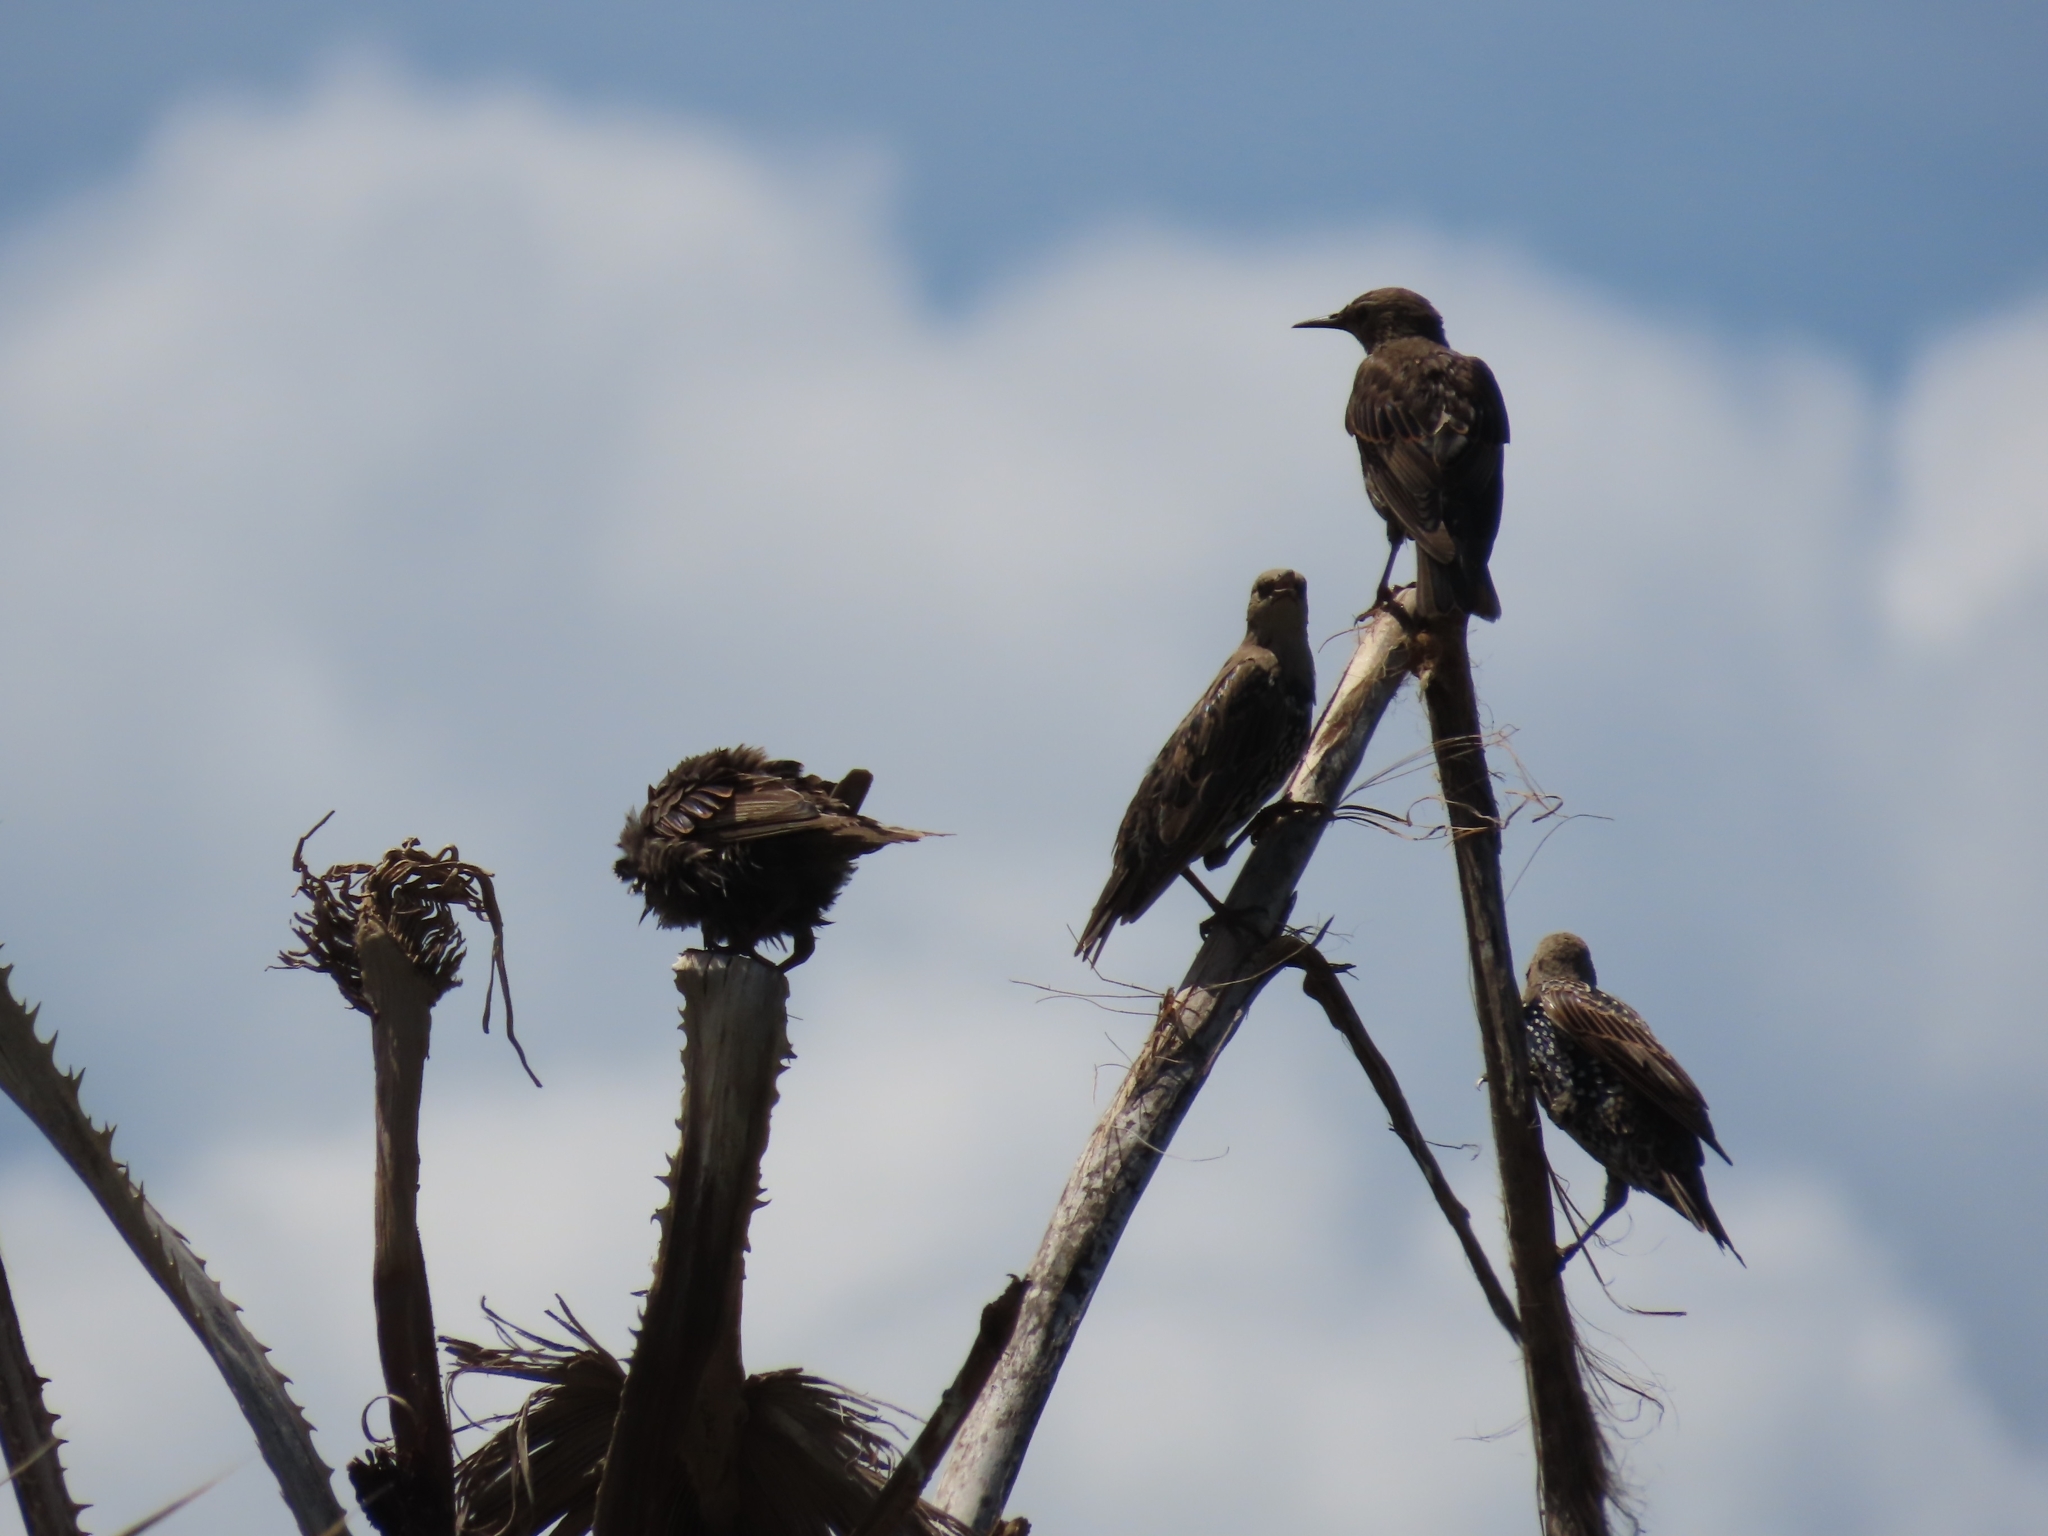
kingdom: Animalia
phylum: Chordata
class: Aves
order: Passeriformes
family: Sturnidae
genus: Sturnus
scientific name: Sturnus vulgaris
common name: Common starling
